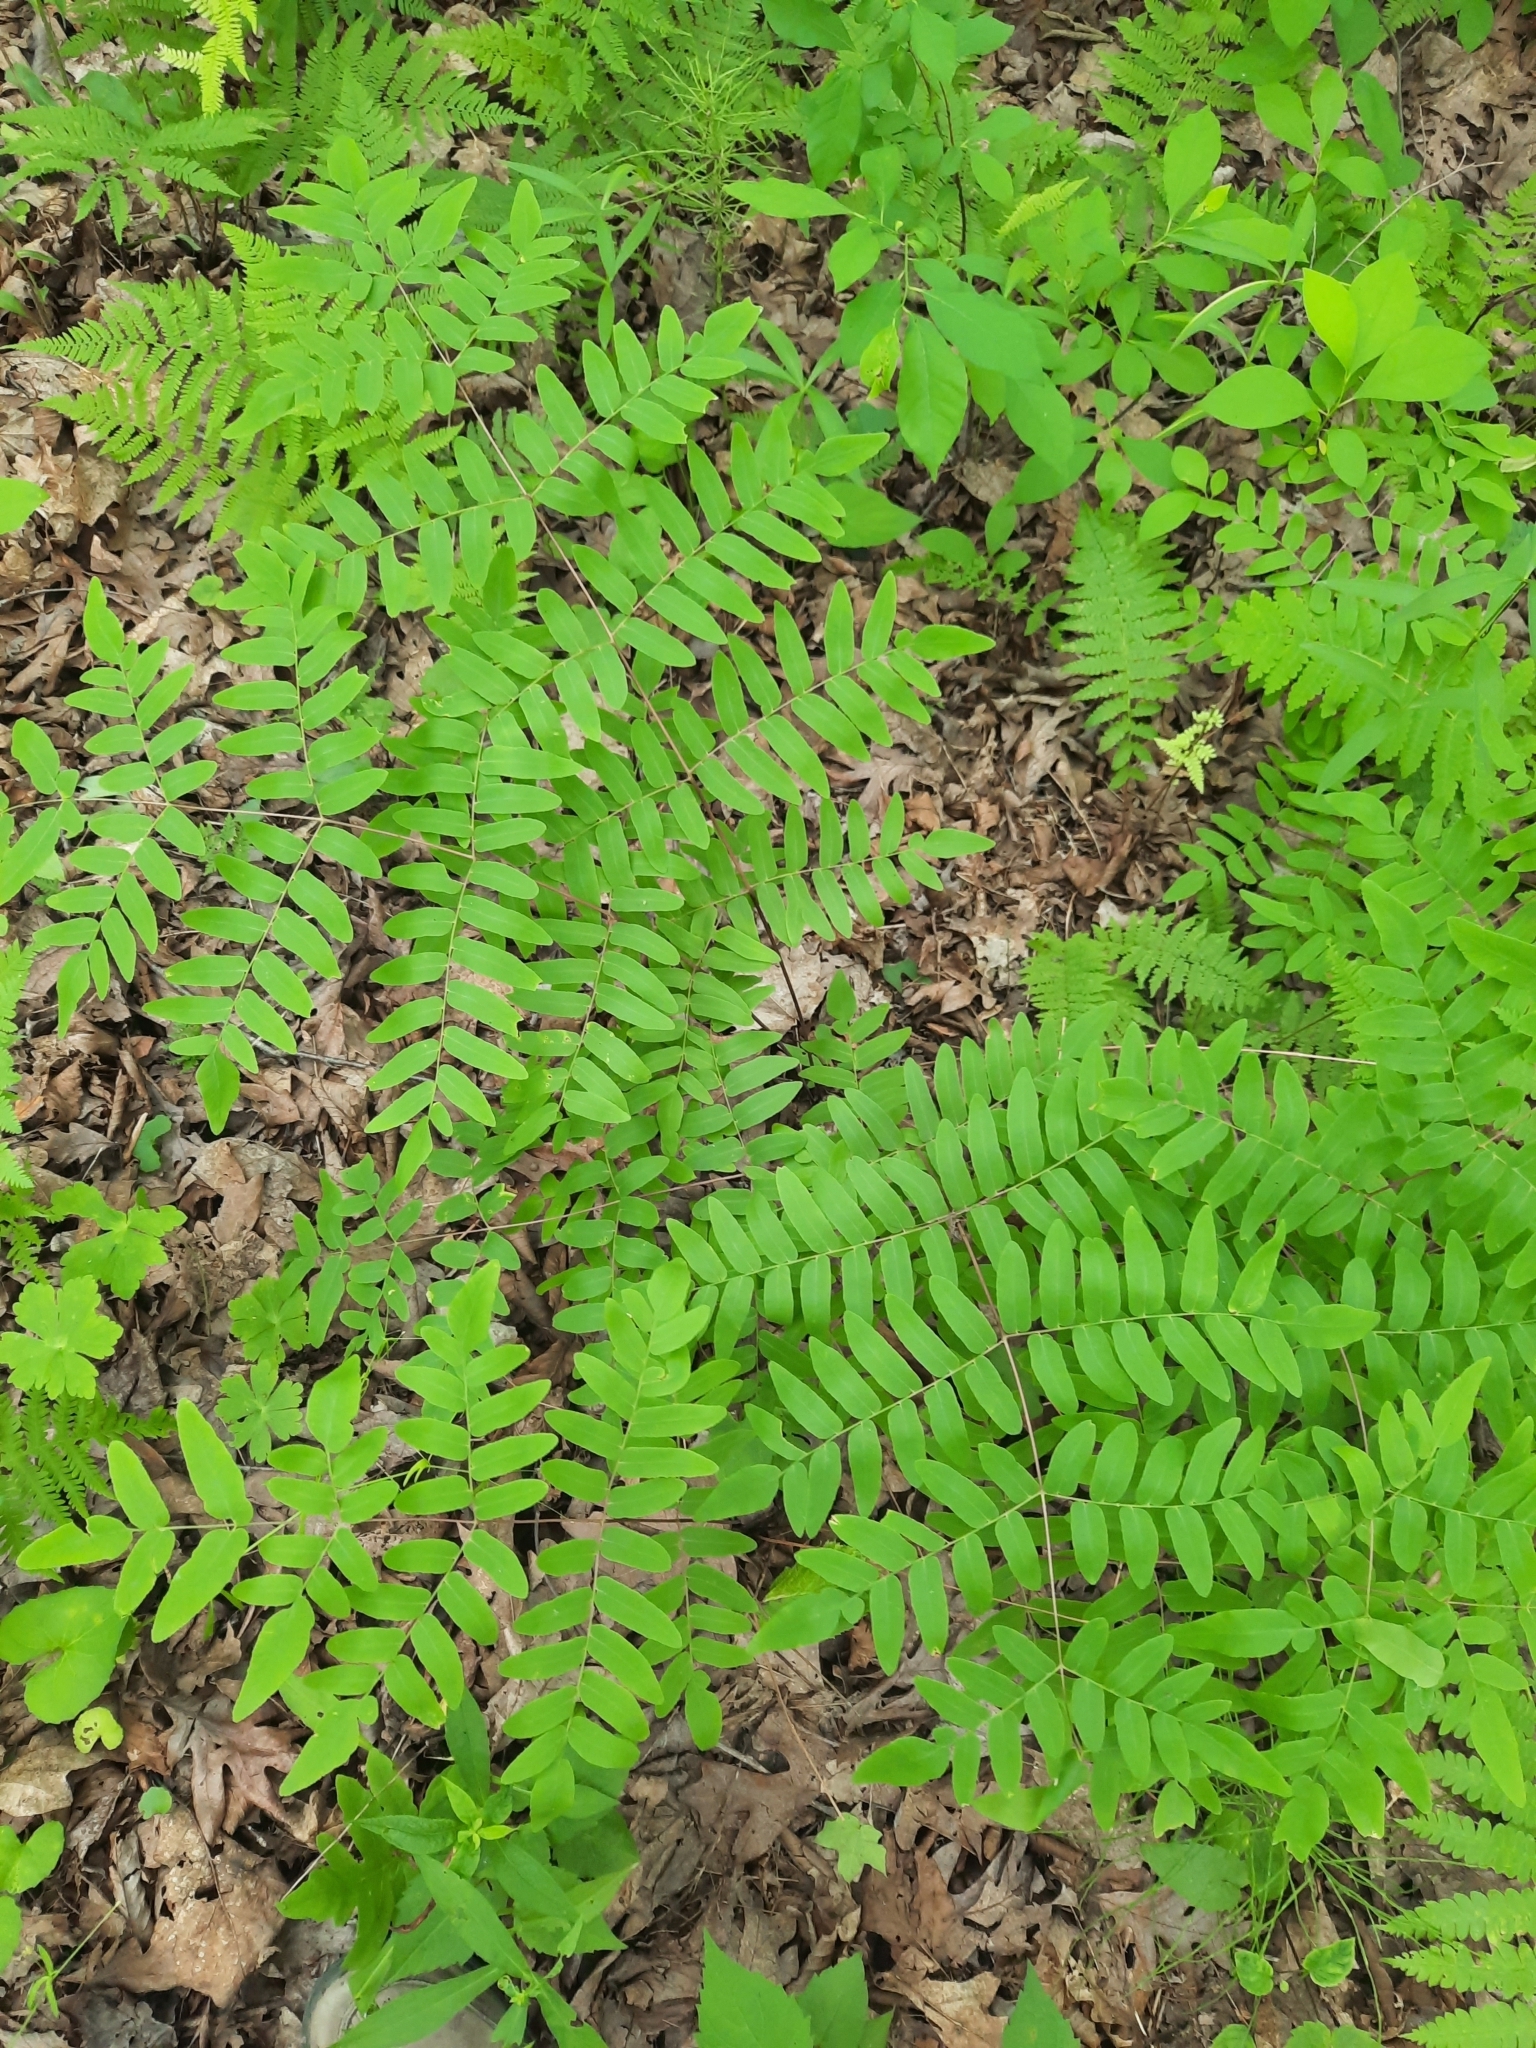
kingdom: Plantae
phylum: Tracheophyta
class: Polypodiopsida
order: Osmundales
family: Osmundaceae
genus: Osmunda
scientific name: Osmunda spectabilis
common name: American royal fern
